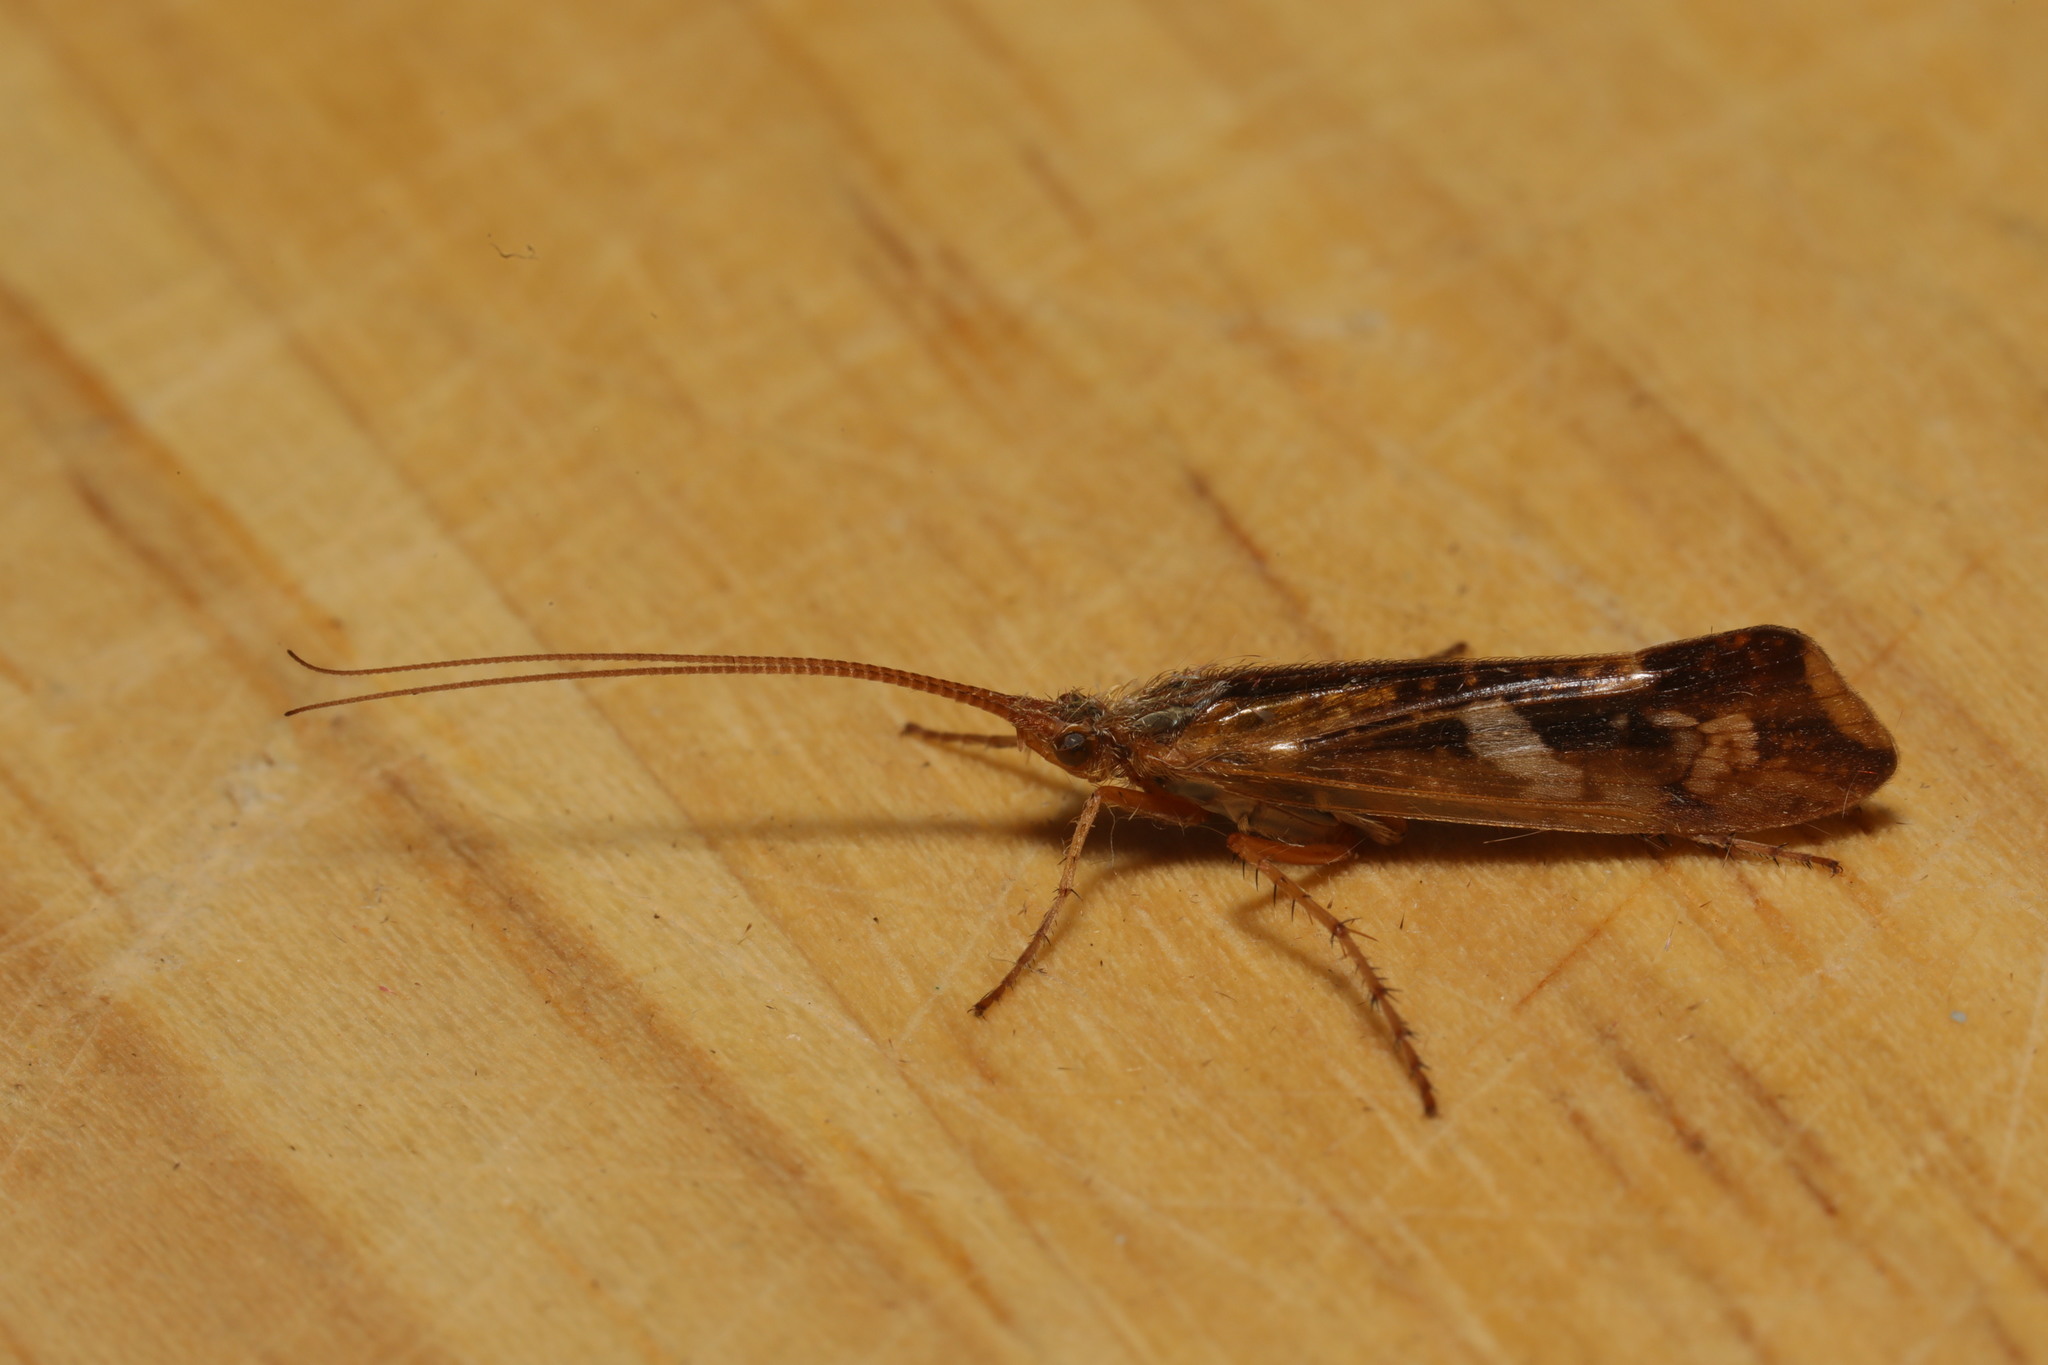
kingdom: Animalia
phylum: Arthropoda
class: Insecta
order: Trichoptera
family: Limnephilidae
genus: Limnephilus
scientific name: Limnephilus lunatus
